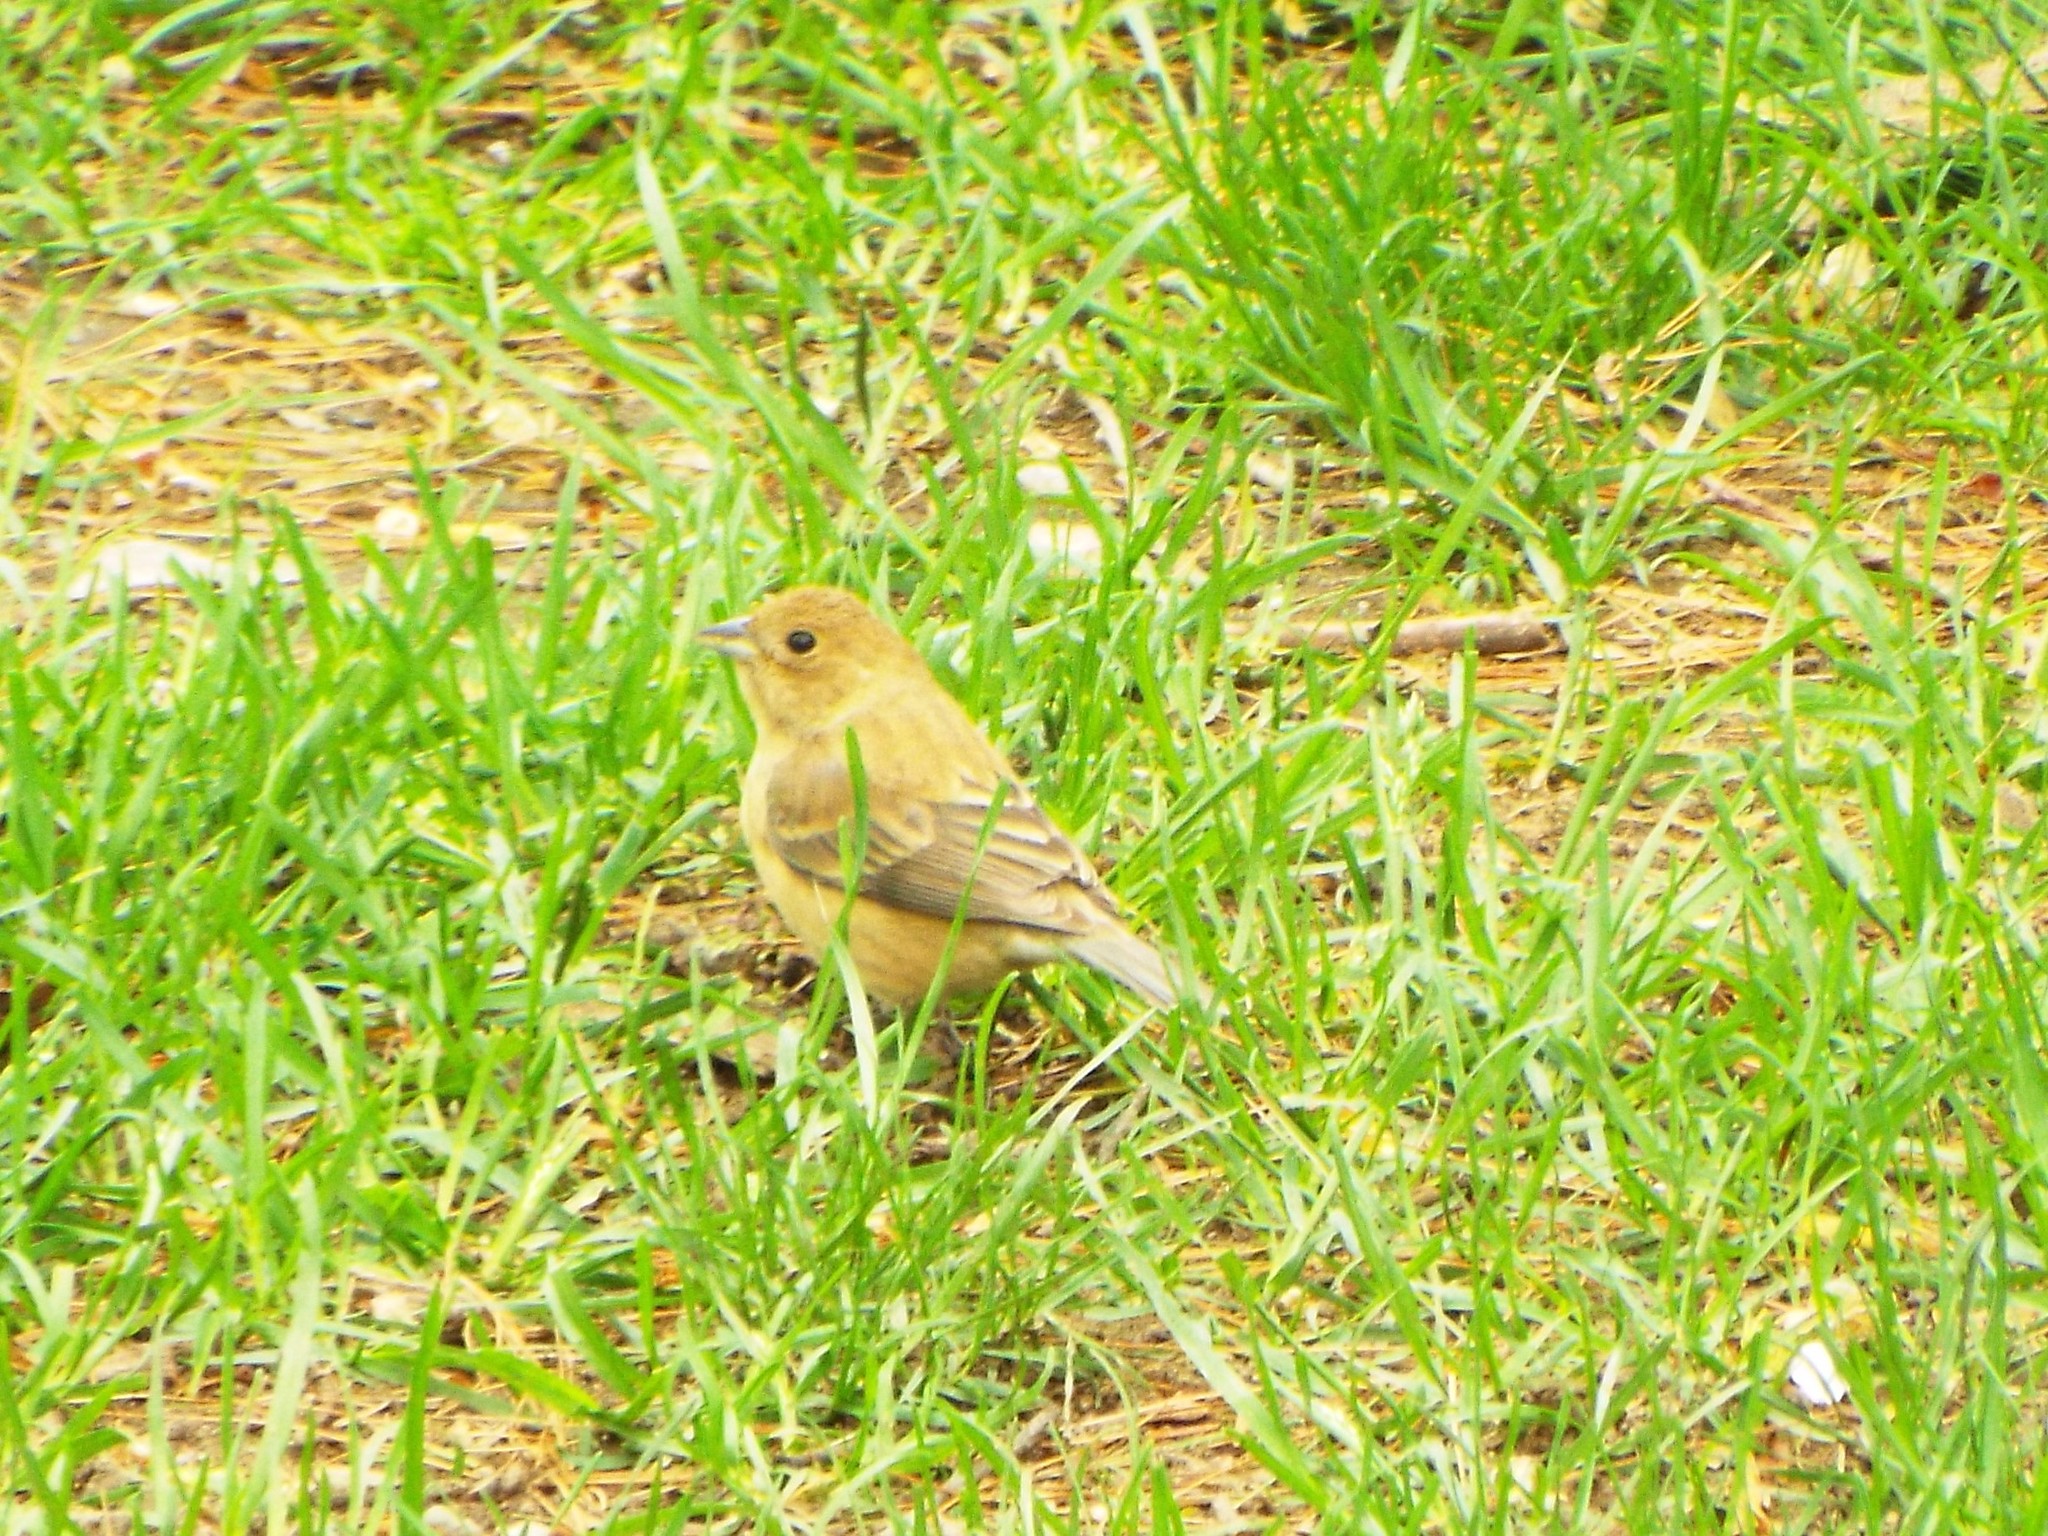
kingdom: Animalia
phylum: Chordata
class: Aves
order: Passeriformes
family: Cardinalidae
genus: Passerina
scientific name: Passerina cyanea
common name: Indigo bunting
